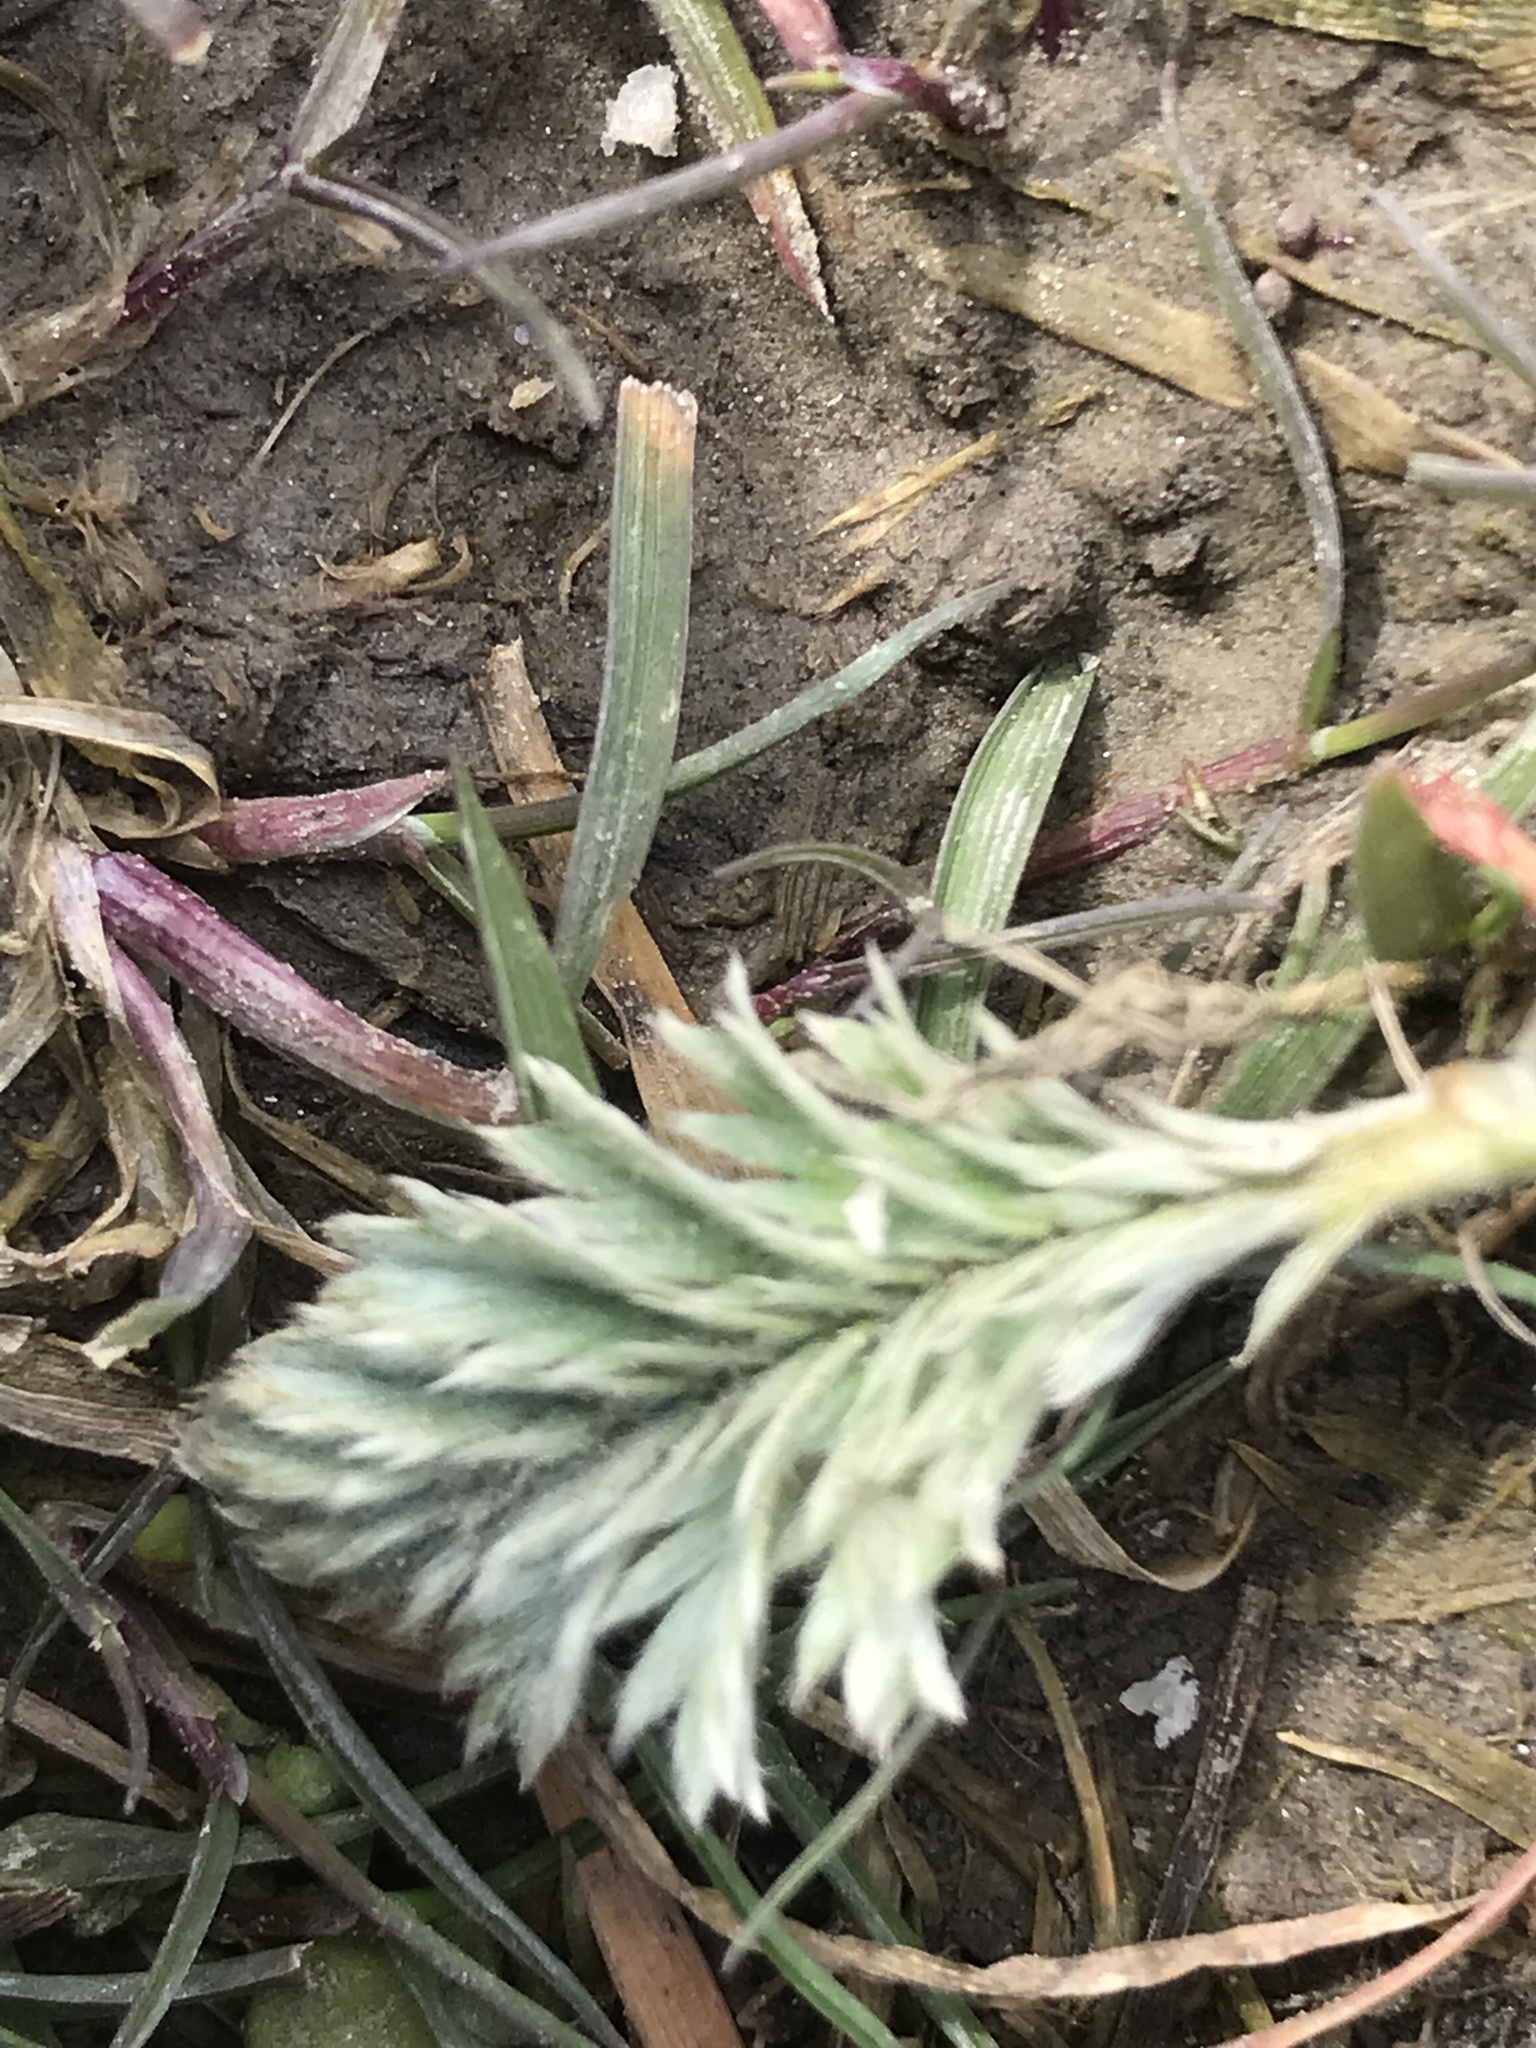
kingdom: Plantae
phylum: Tracheophyta
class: Magnoliopsida
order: Rosales
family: Rosaceae
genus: Argentina
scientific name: Argentina anserina
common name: Common silverweed
